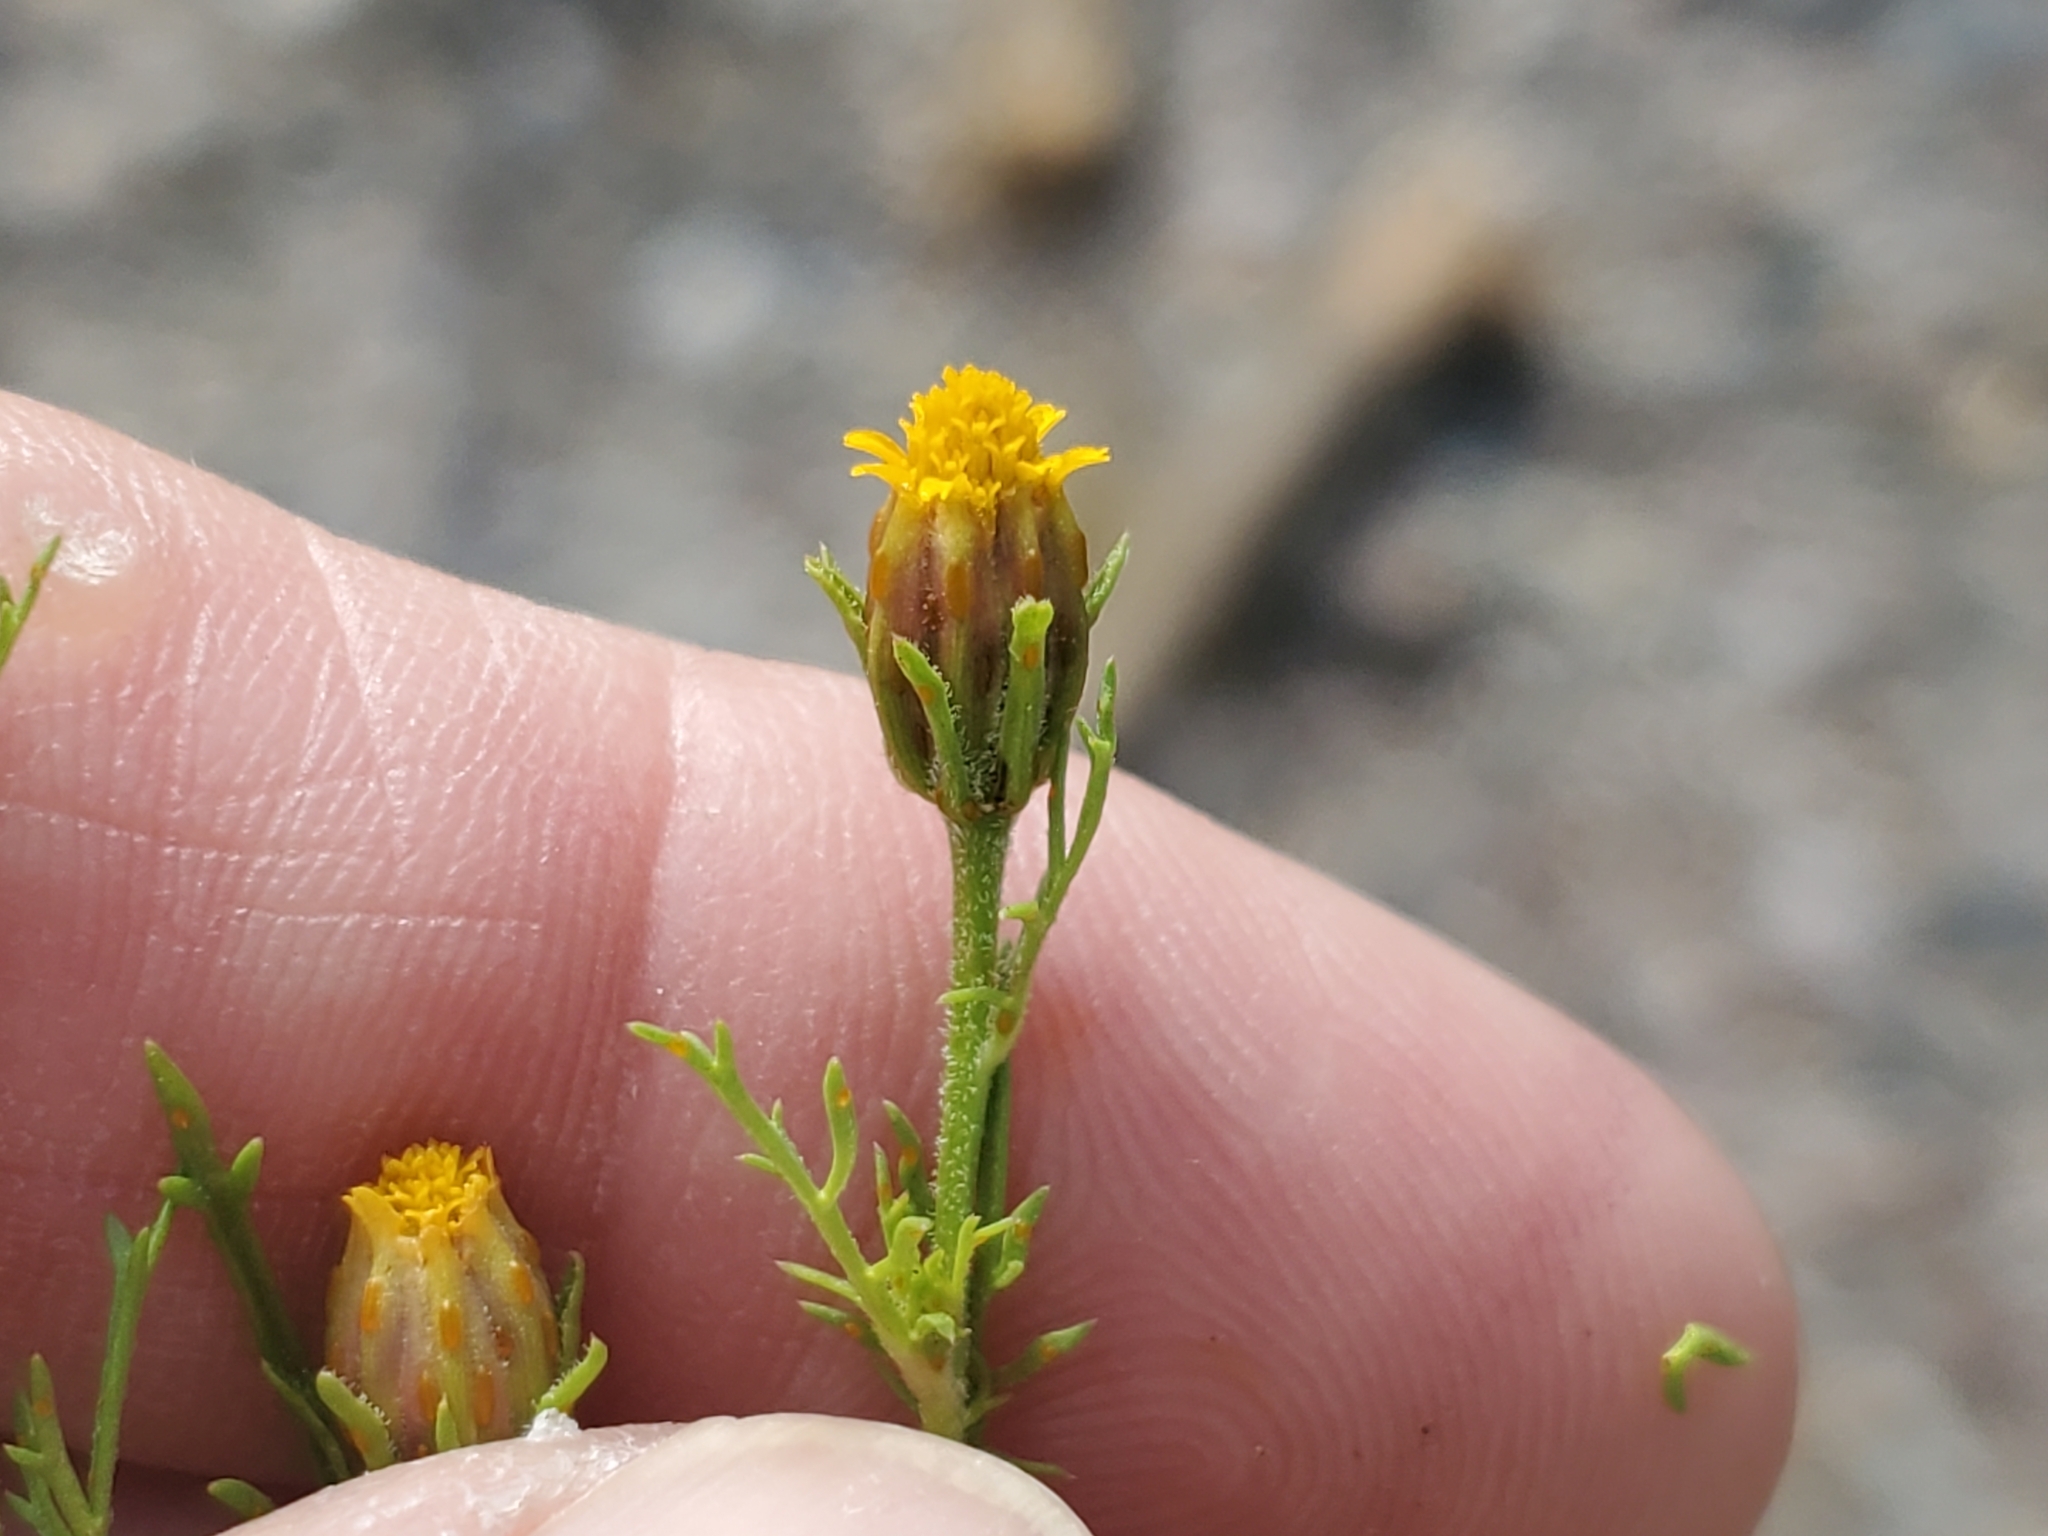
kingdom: Plantae
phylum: Tracheophyta
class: Magnoliopsida
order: Asterales
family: Asteraceae
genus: Dyssodia
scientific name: Dyssodia papposa
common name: Dogweed
